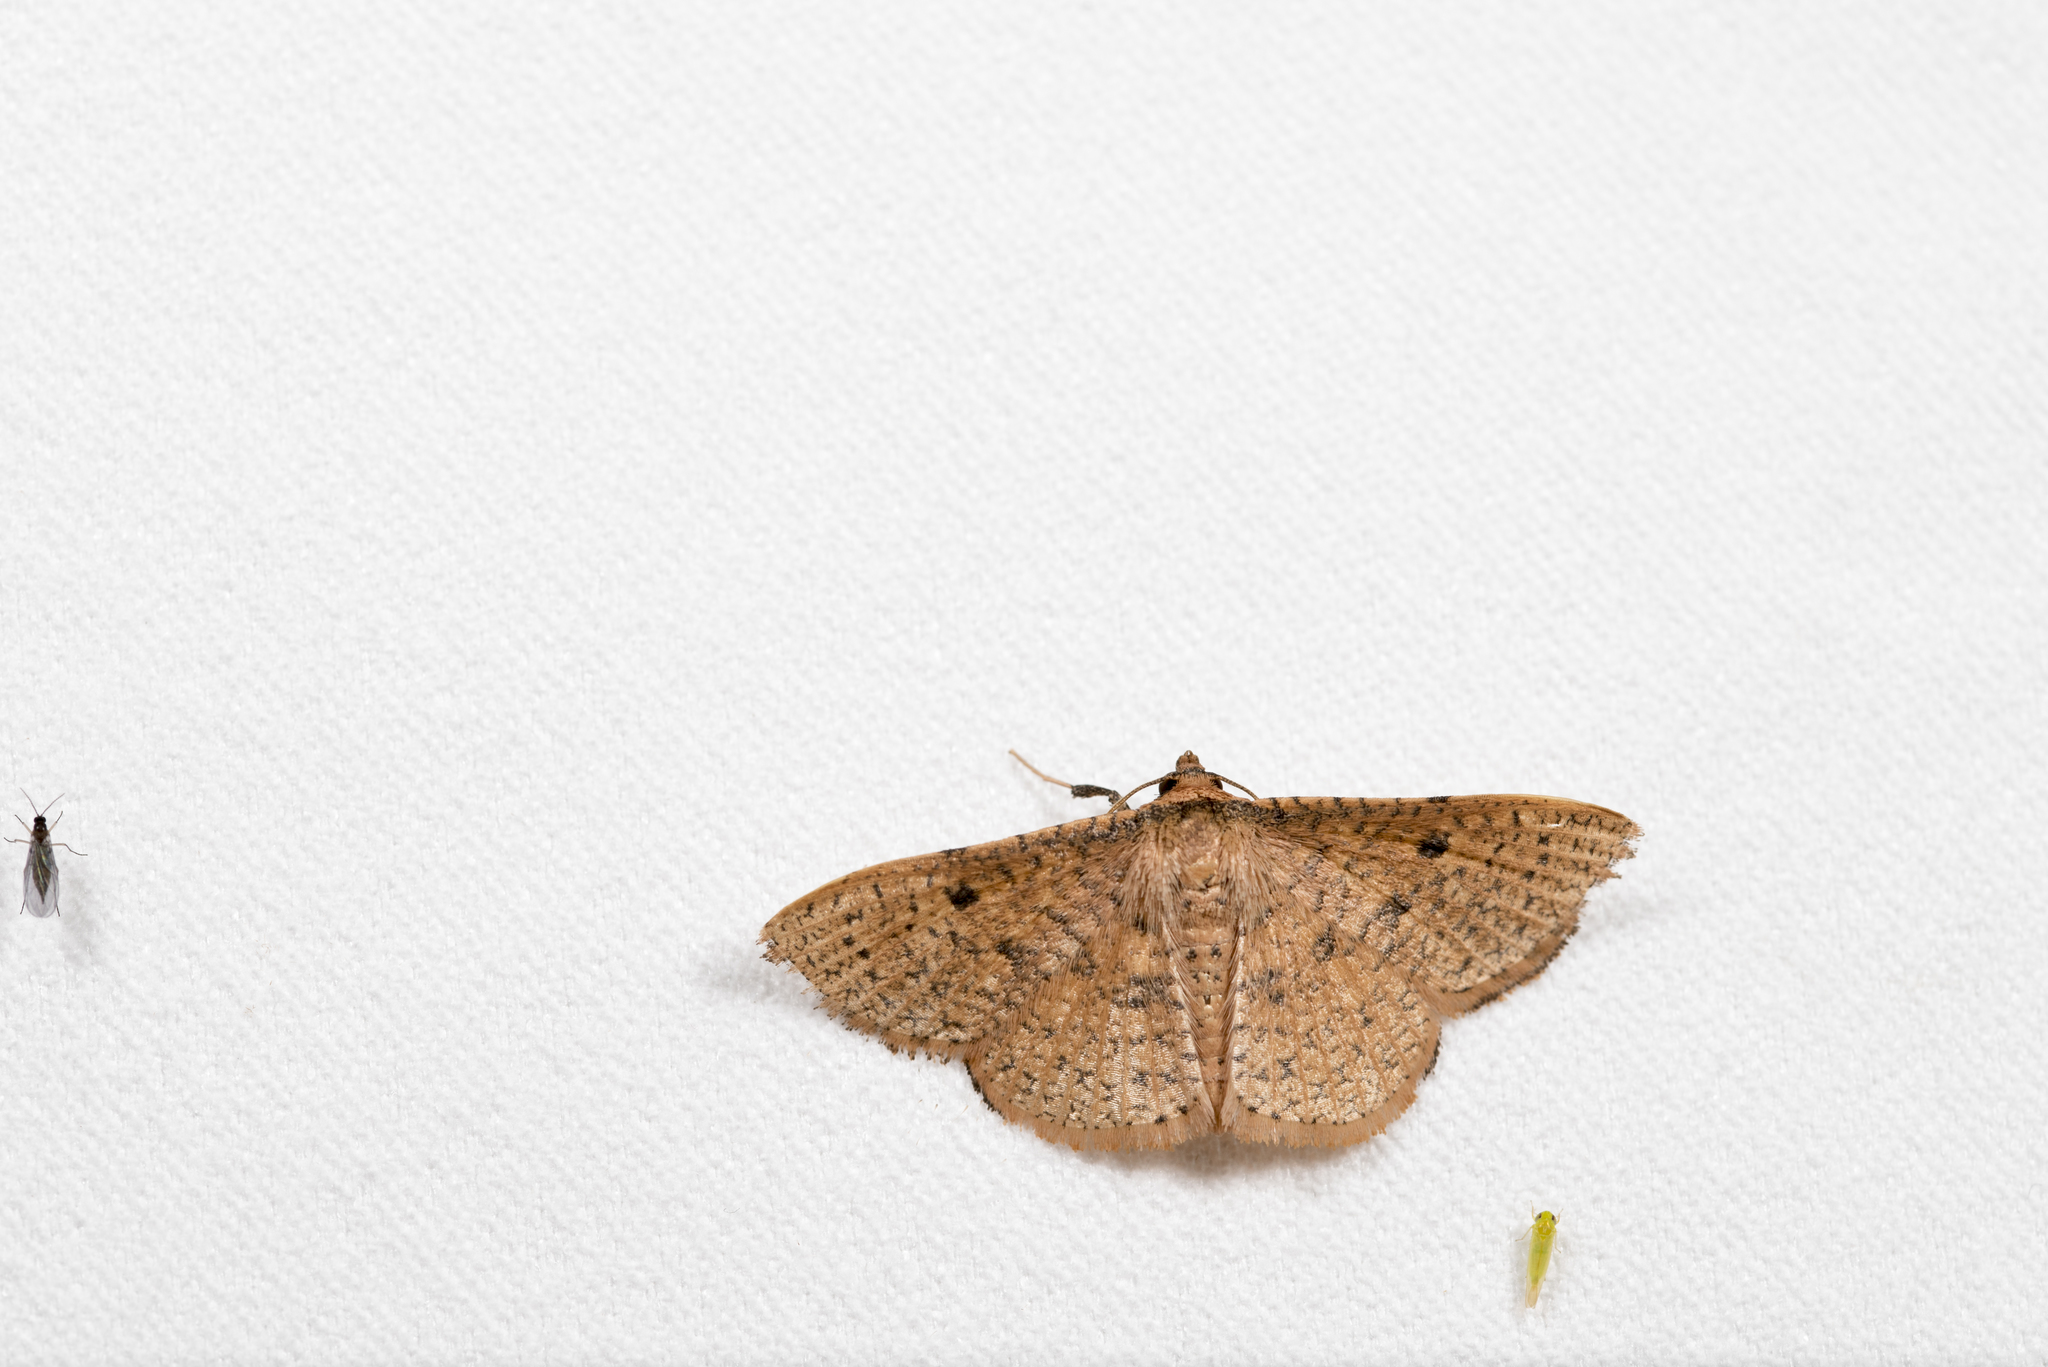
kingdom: Animalia
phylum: Arthropoda
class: Insecta
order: Lepidoptera
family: Thyrididae
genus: Herimba
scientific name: Herimba formosa
